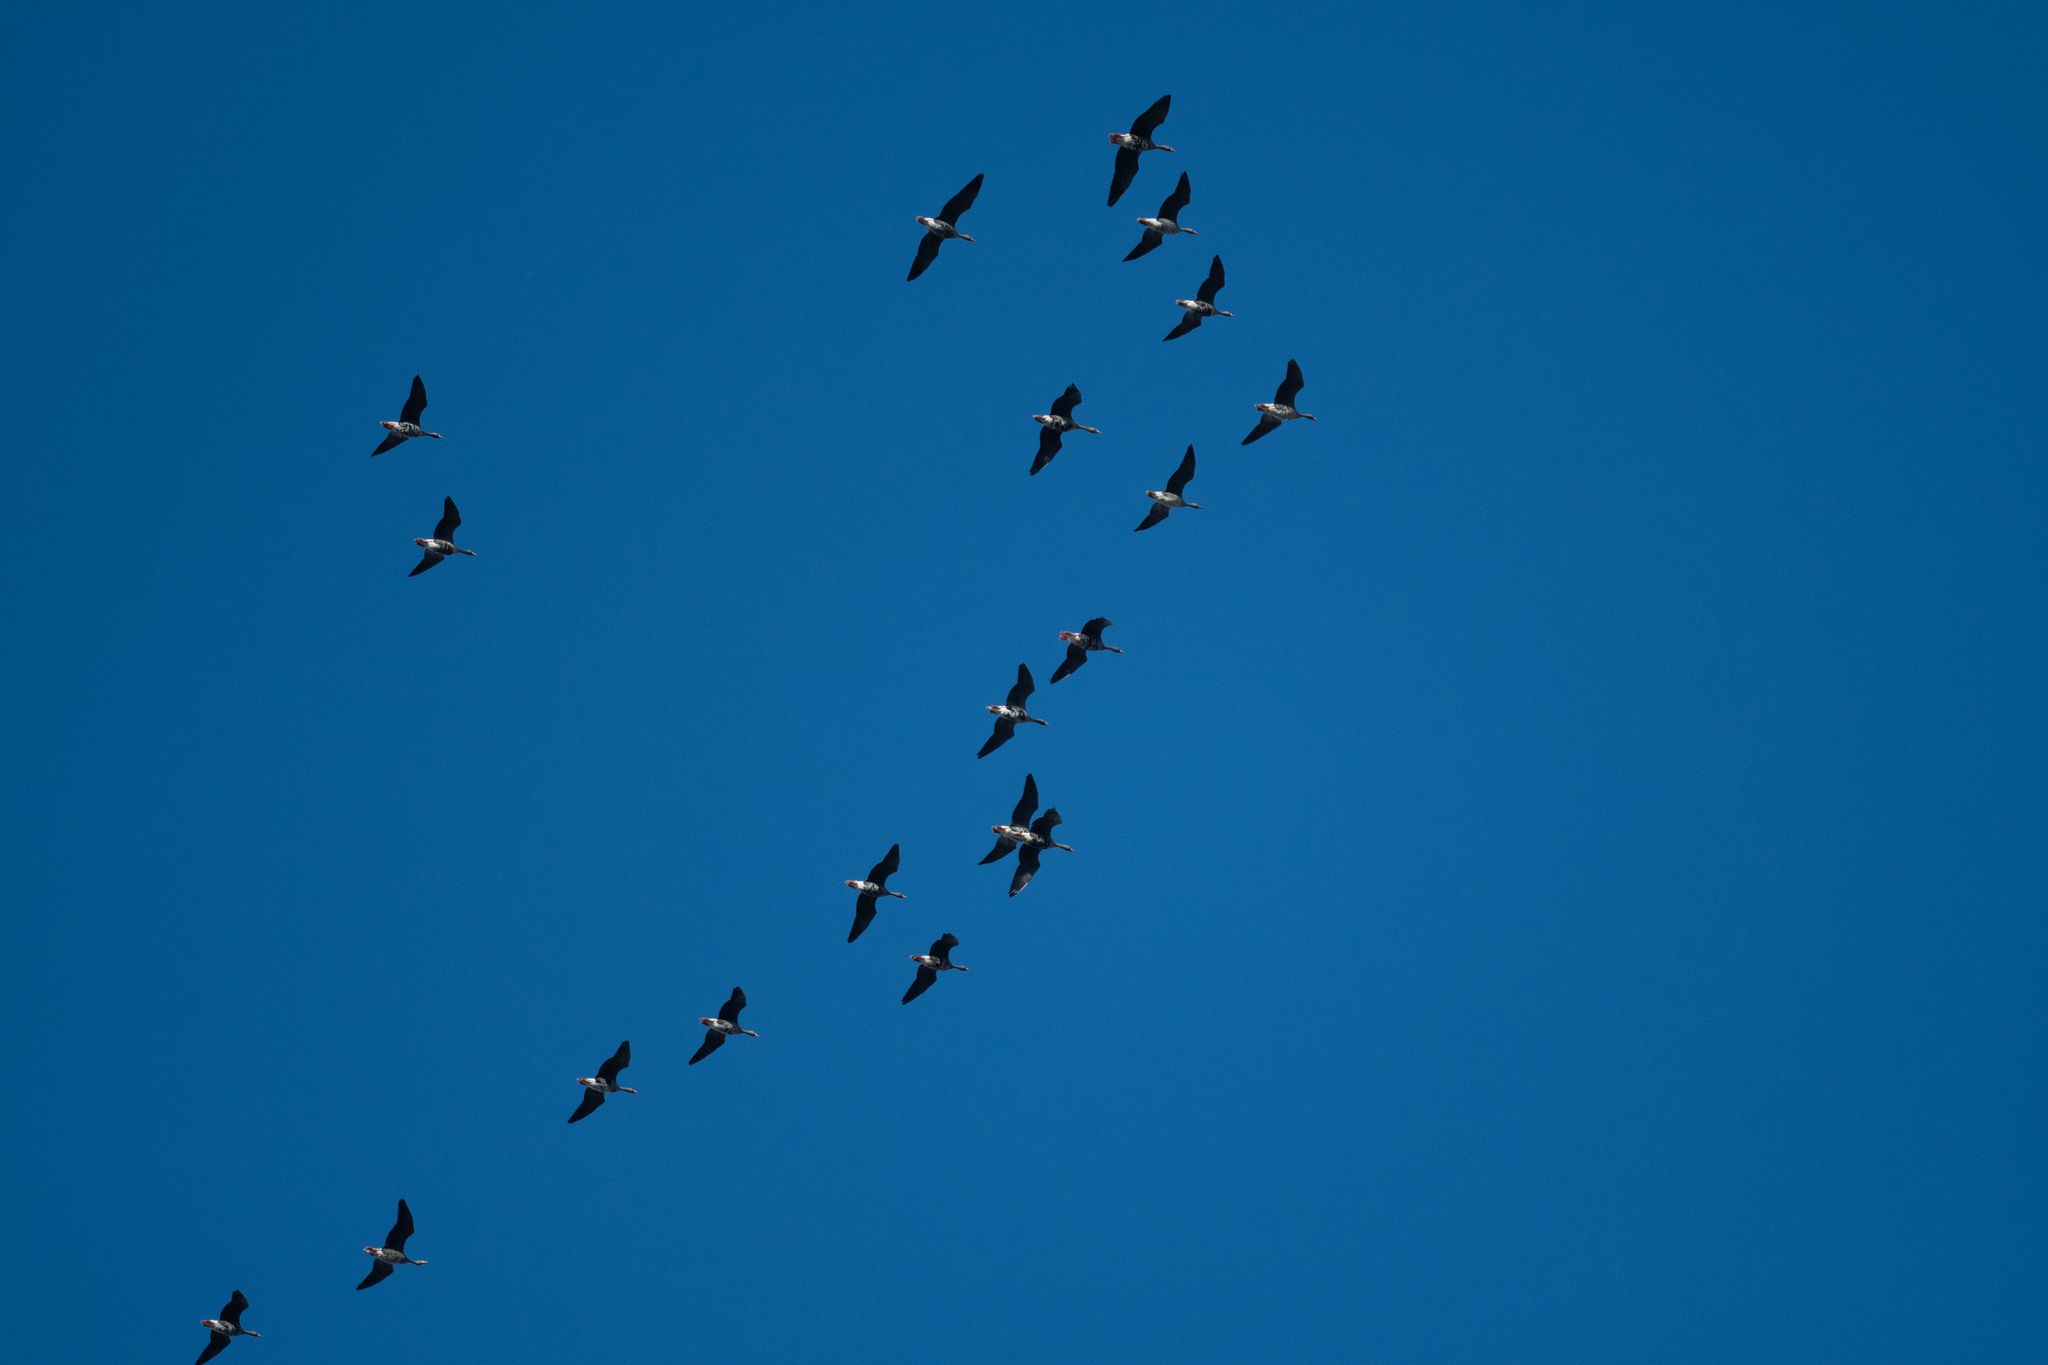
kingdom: Animalia
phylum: Chordata
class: Aves
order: Anseriformes
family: Anatidae
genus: Anser
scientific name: Anser albifrons
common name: Greater white-fronted goose
